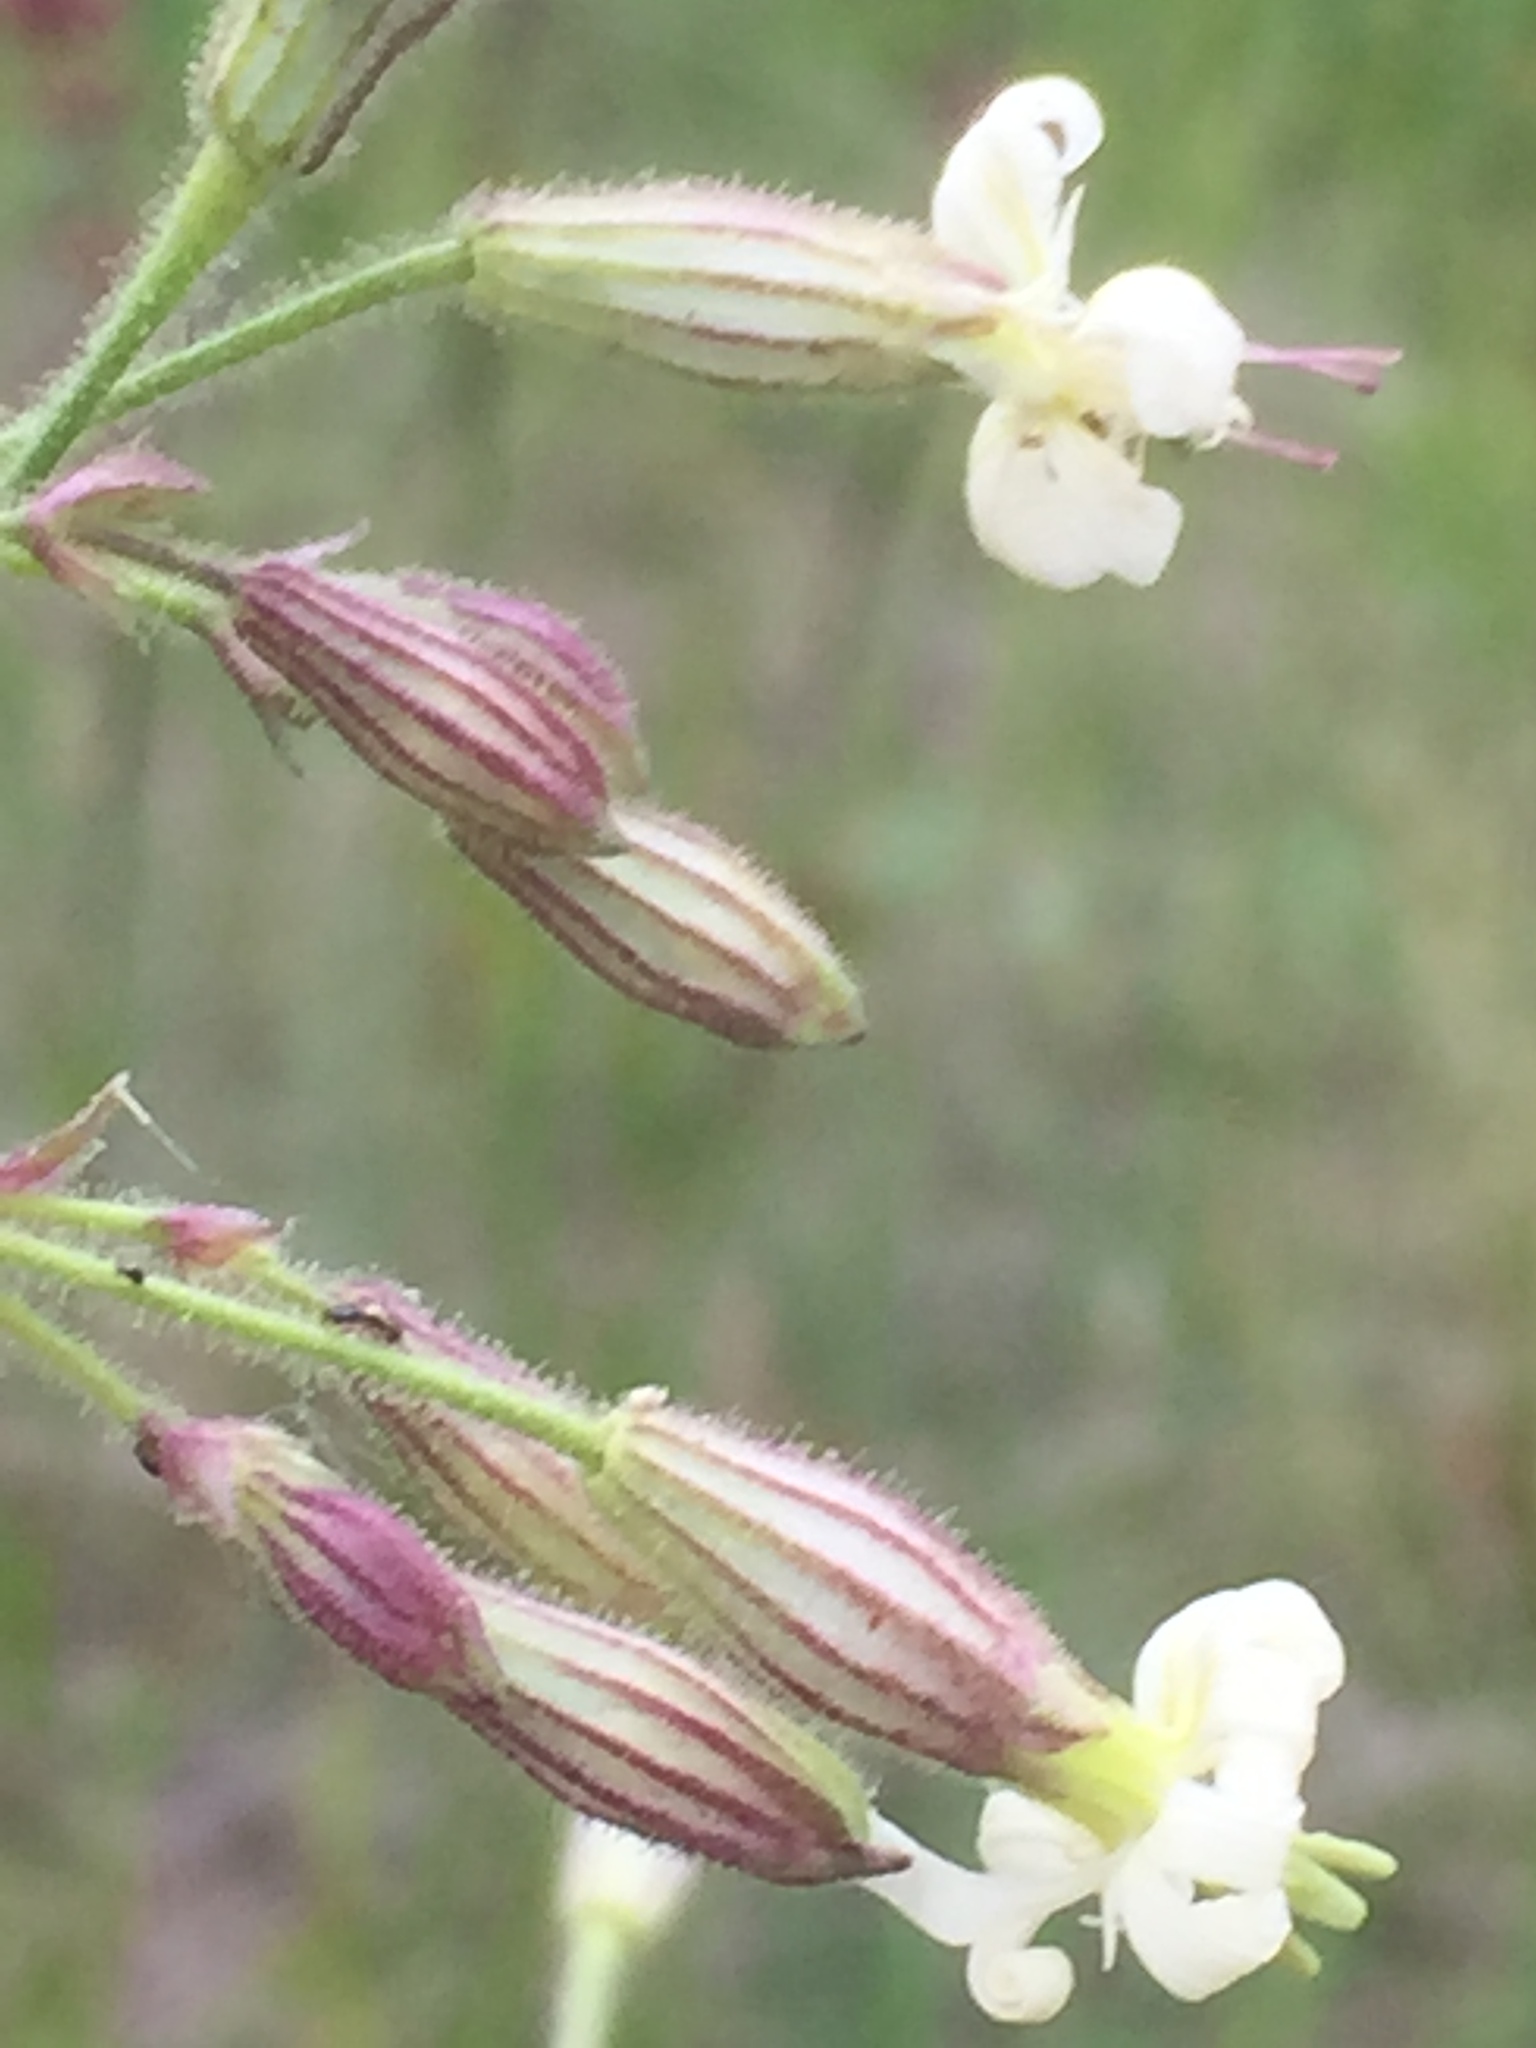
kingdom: Plantae
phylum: Tracheophyta
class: Magnoliopsida
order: Caryophyllales
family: Caryophyllaceae
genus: Silene
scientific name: Silene nutans
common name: Nottingham catchfly
